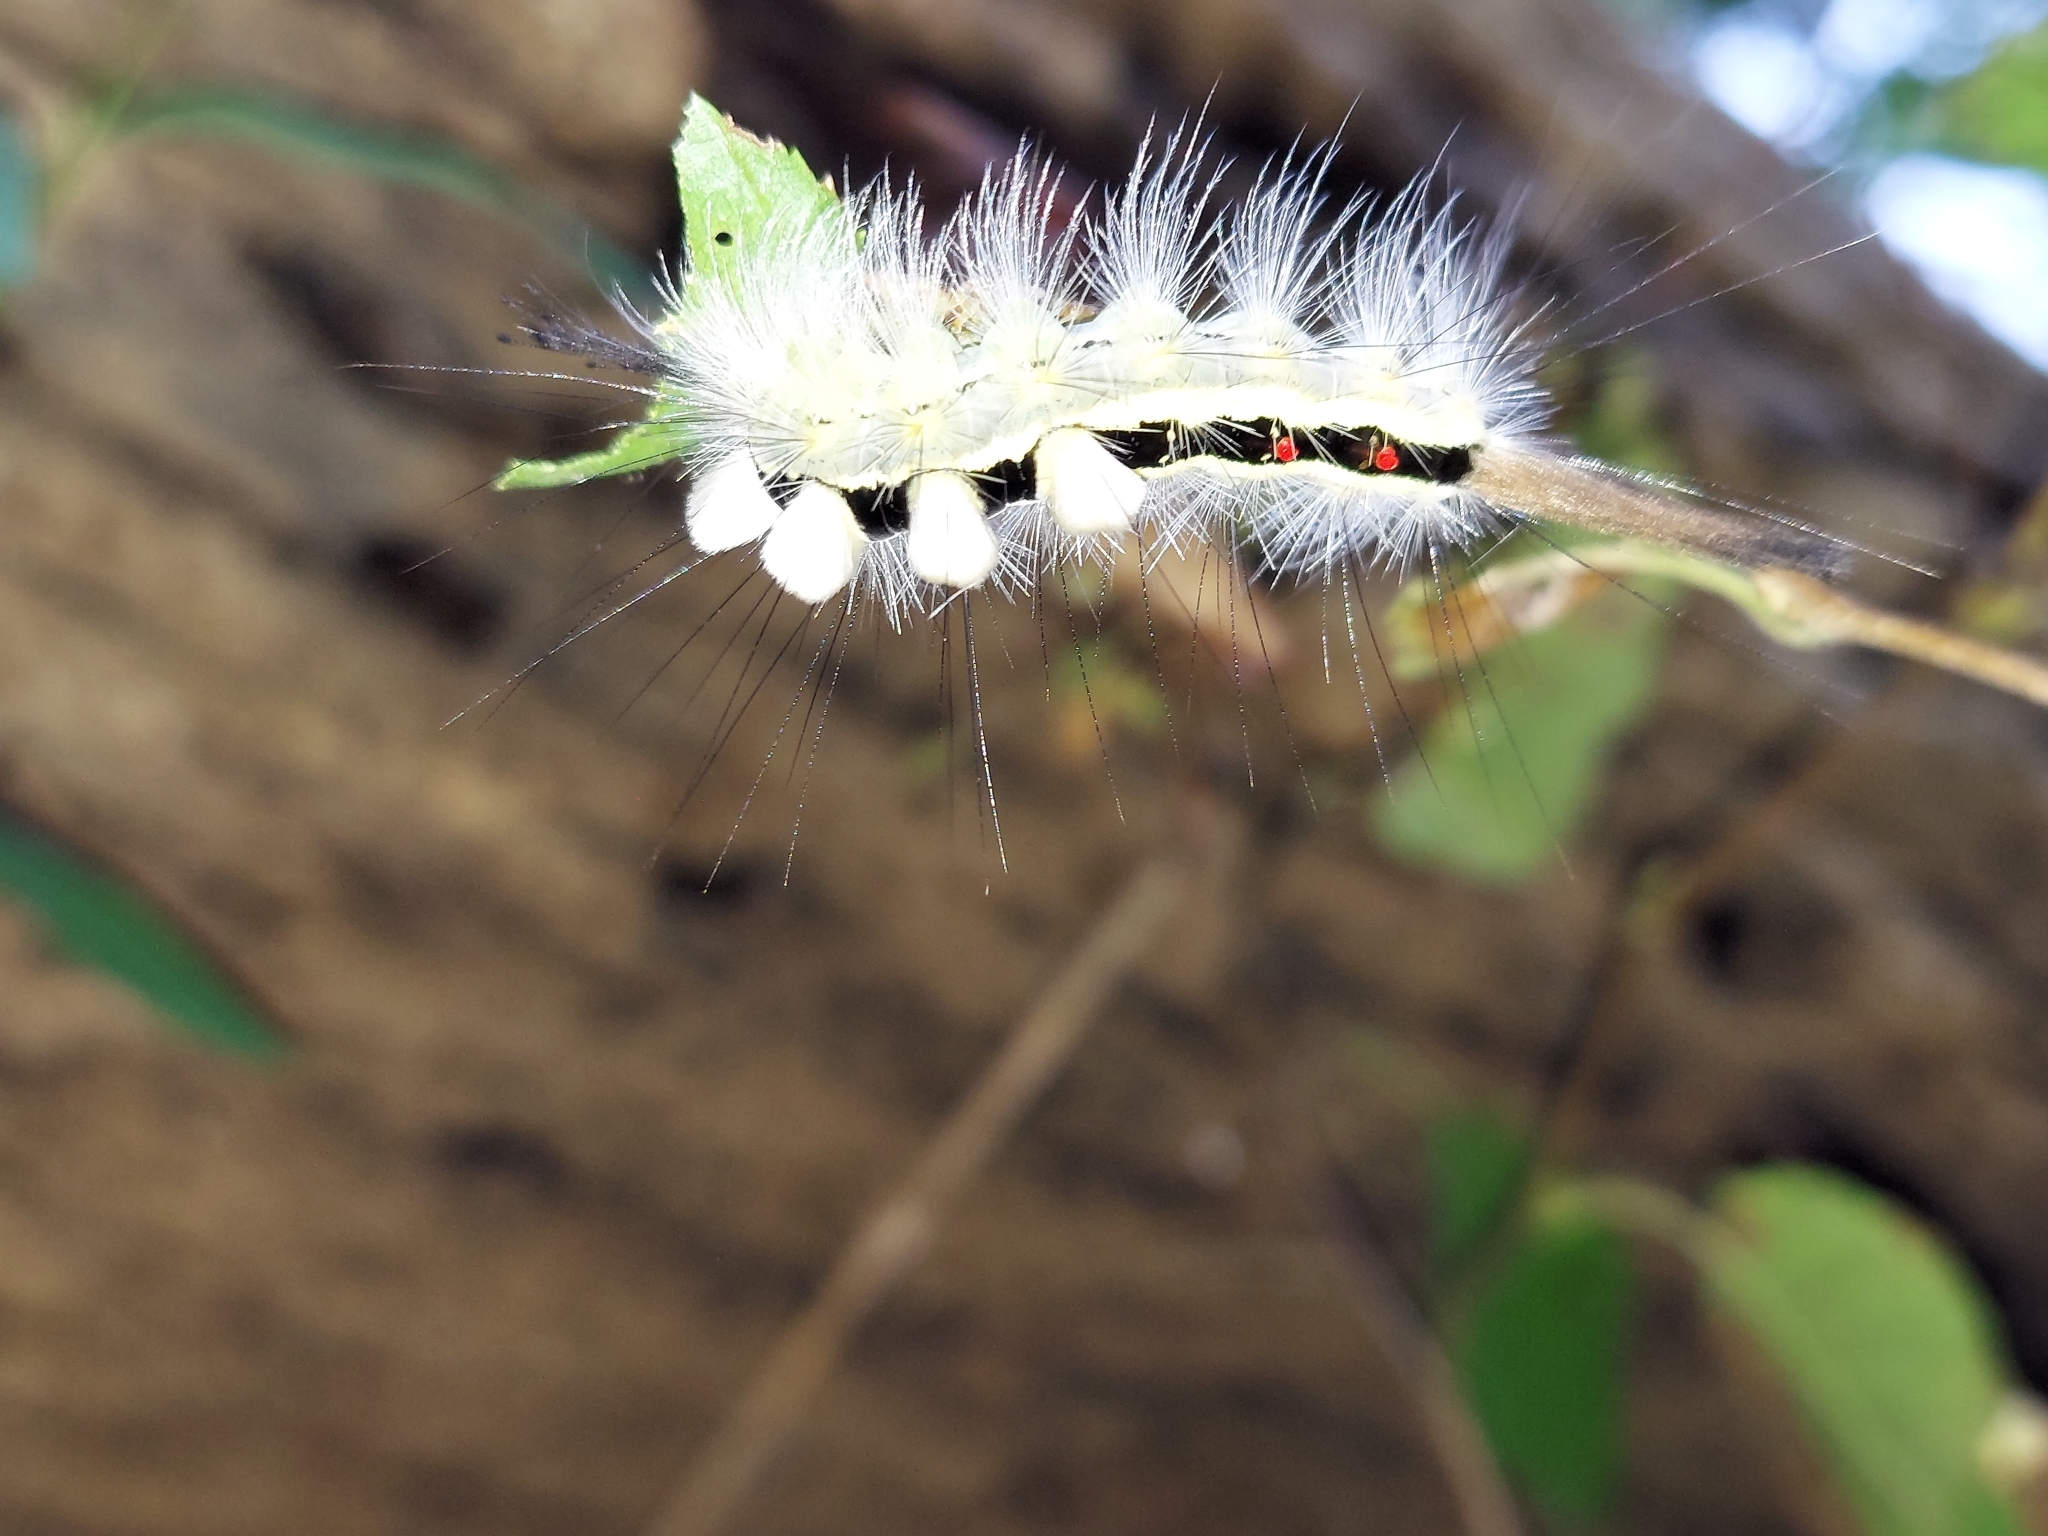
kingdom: Animalia
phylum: Arthropoda
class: Insecta
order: Lepidoptera
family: Erebidae
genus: Orgyia
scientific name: Orgyia leucostigma
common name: White-marked tussock moth
